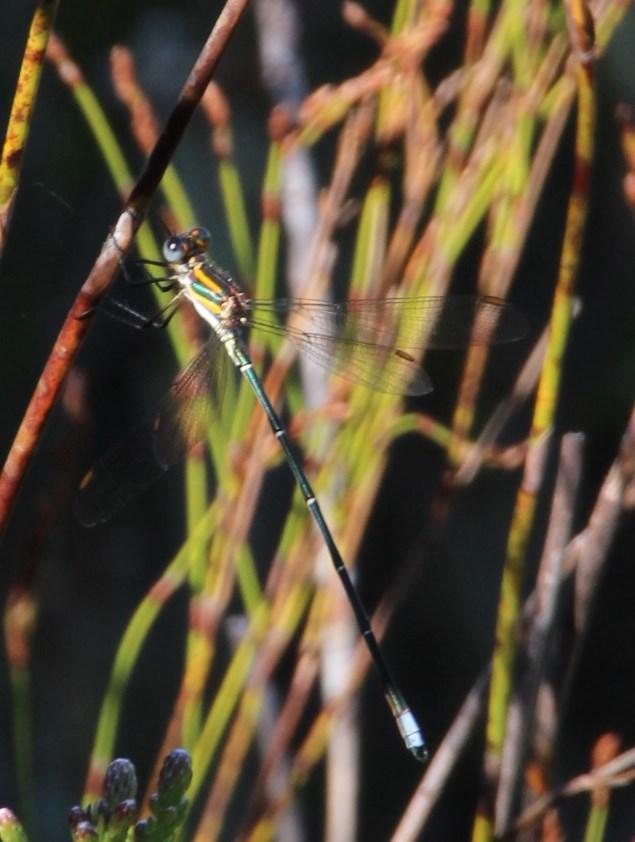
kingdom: Animalia
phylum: Arthropoda
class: Insecta
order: Odonata
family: Synlestidae
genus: Chlorolestes
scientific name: Chlorolestes conspicuus
